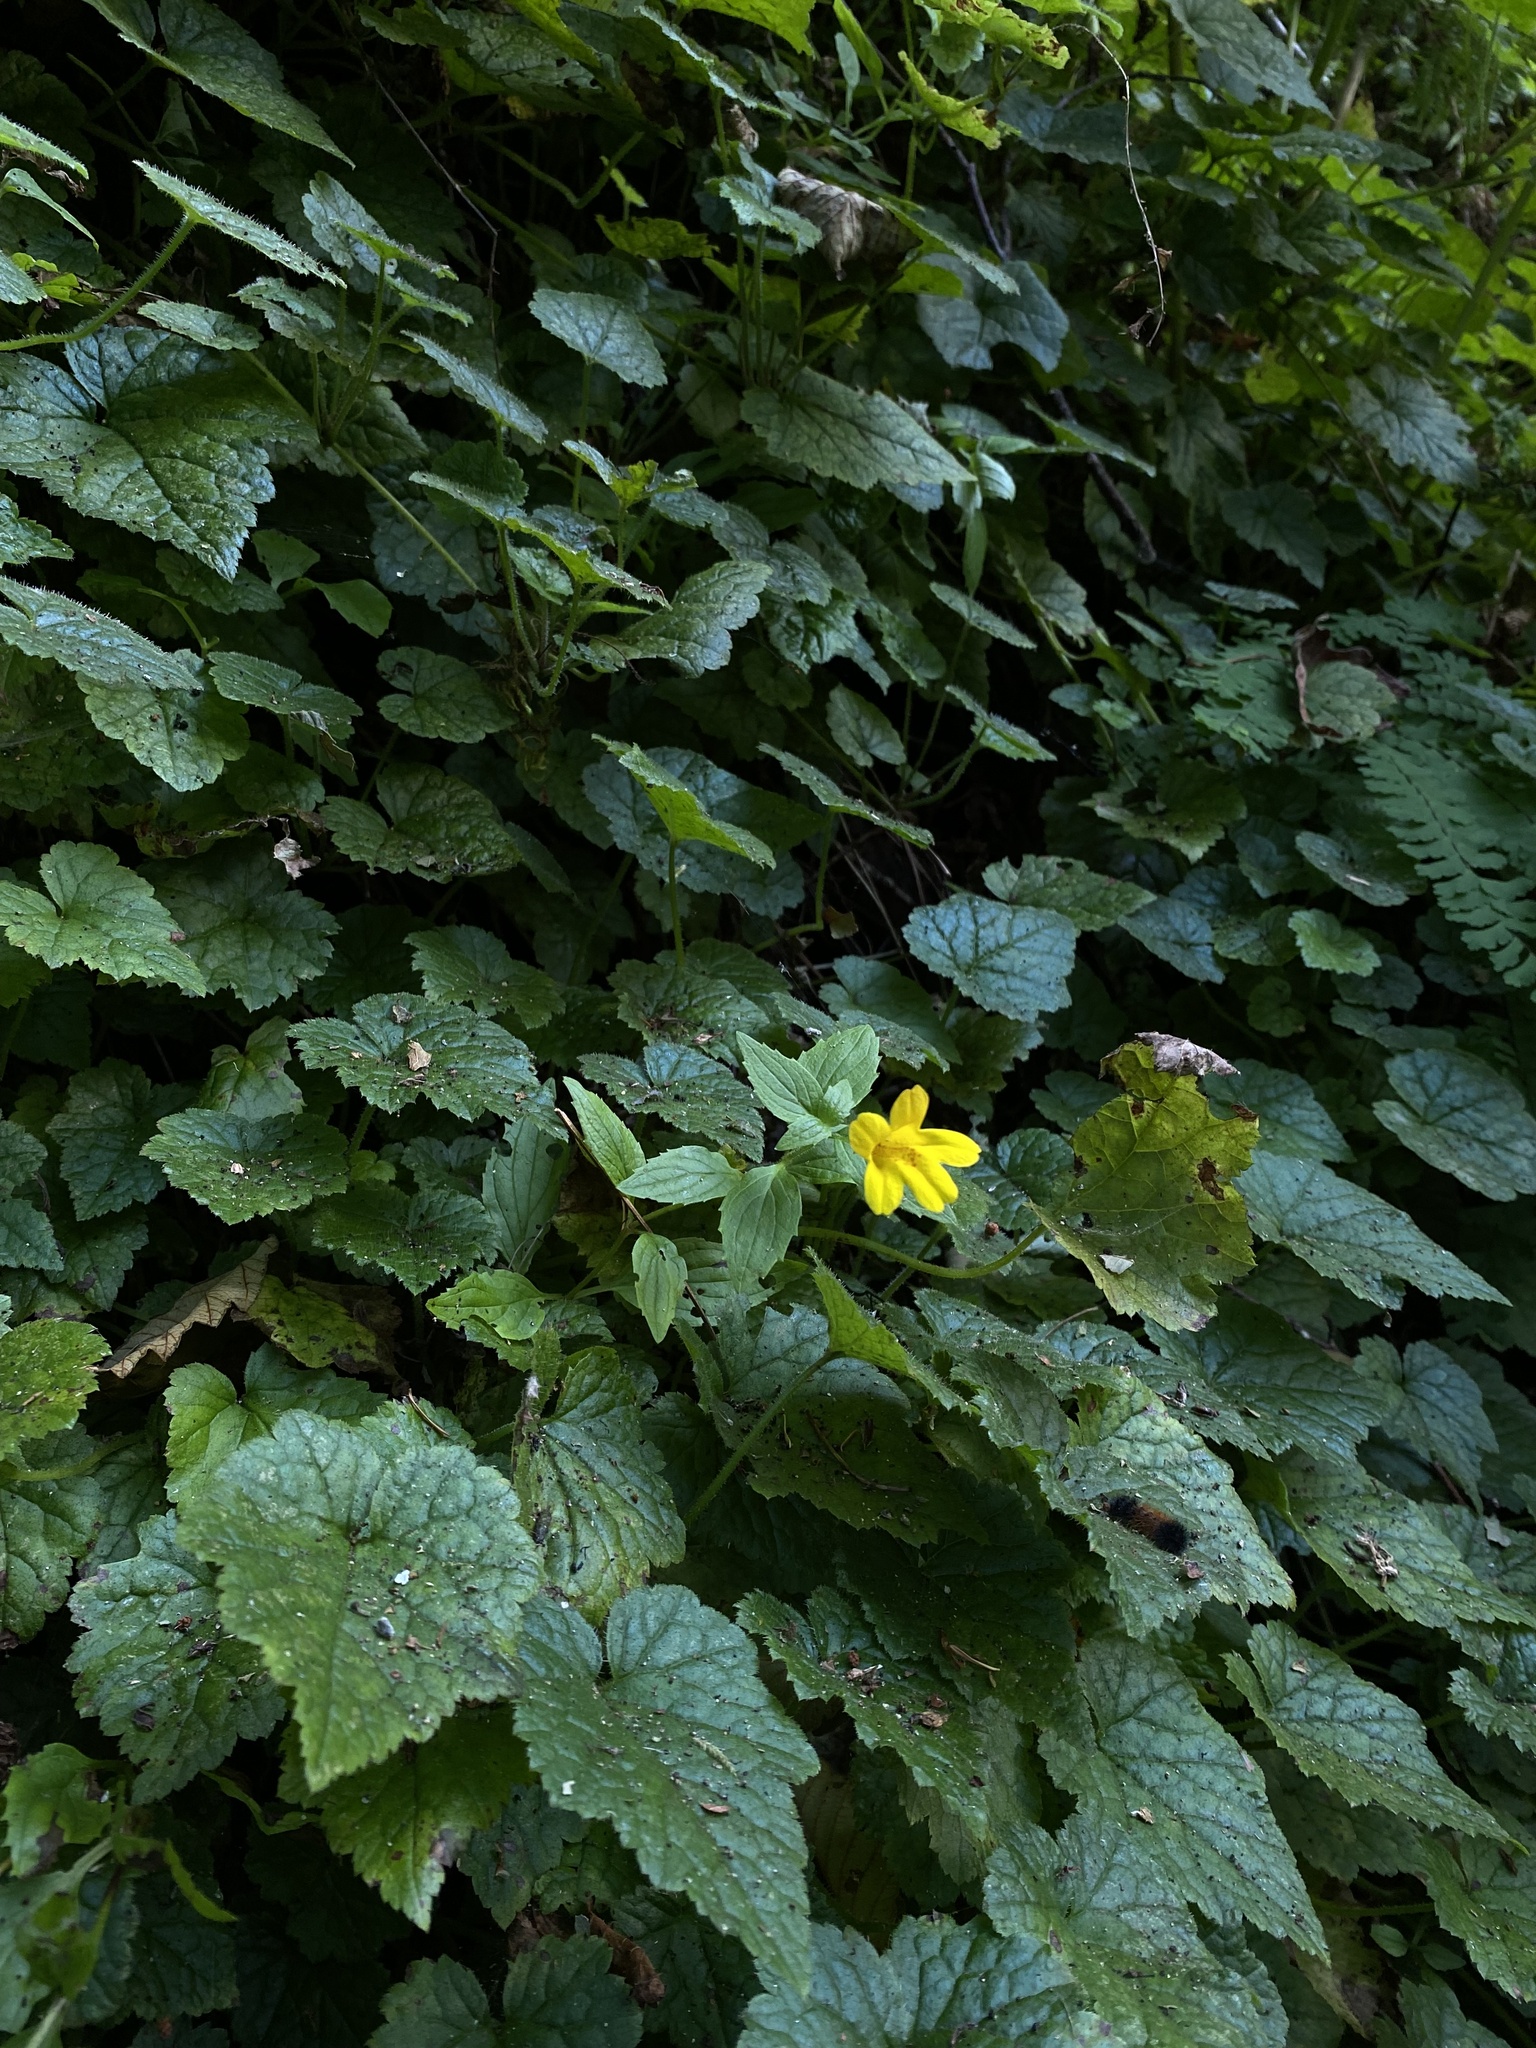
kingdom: Plantae
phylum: Tracheophyta
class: Magnoliopsida
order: Lamiales
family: Phrymaceae
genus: Erythranthe
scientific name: Erythranthe dentata
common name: Coastal monkeyflower
